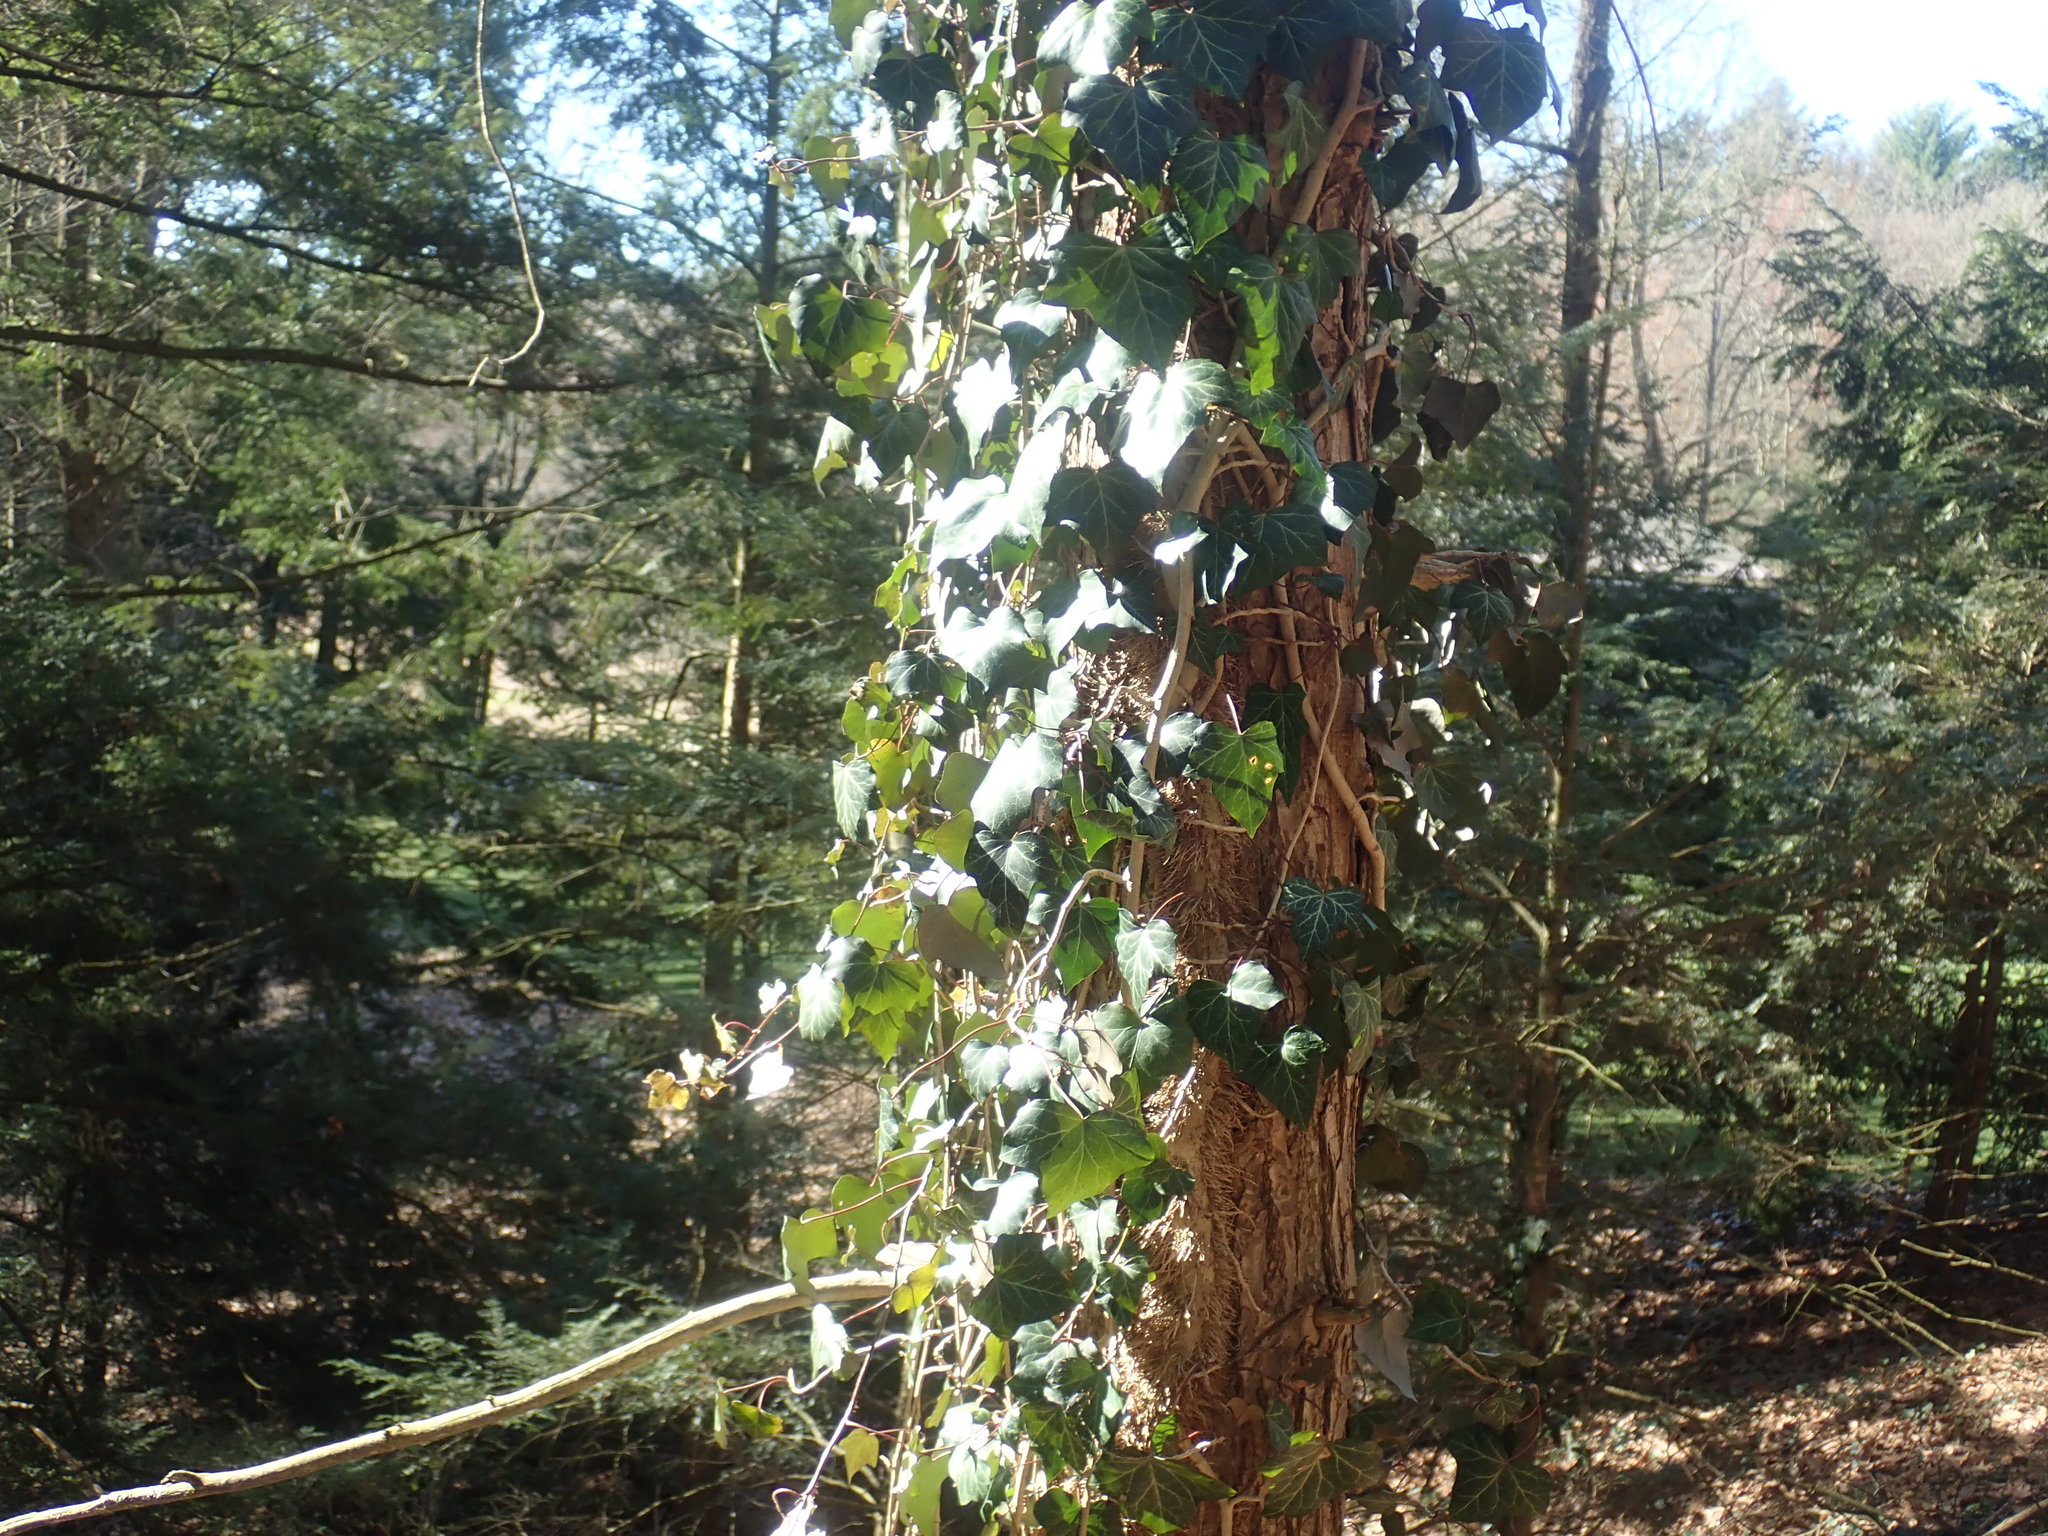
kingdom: Plantae
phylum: Tracheophyta
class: Magnoliopsida
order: Apiales
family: Araliaceae
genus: Hedera
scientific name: Hedera helix
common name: Ivy
